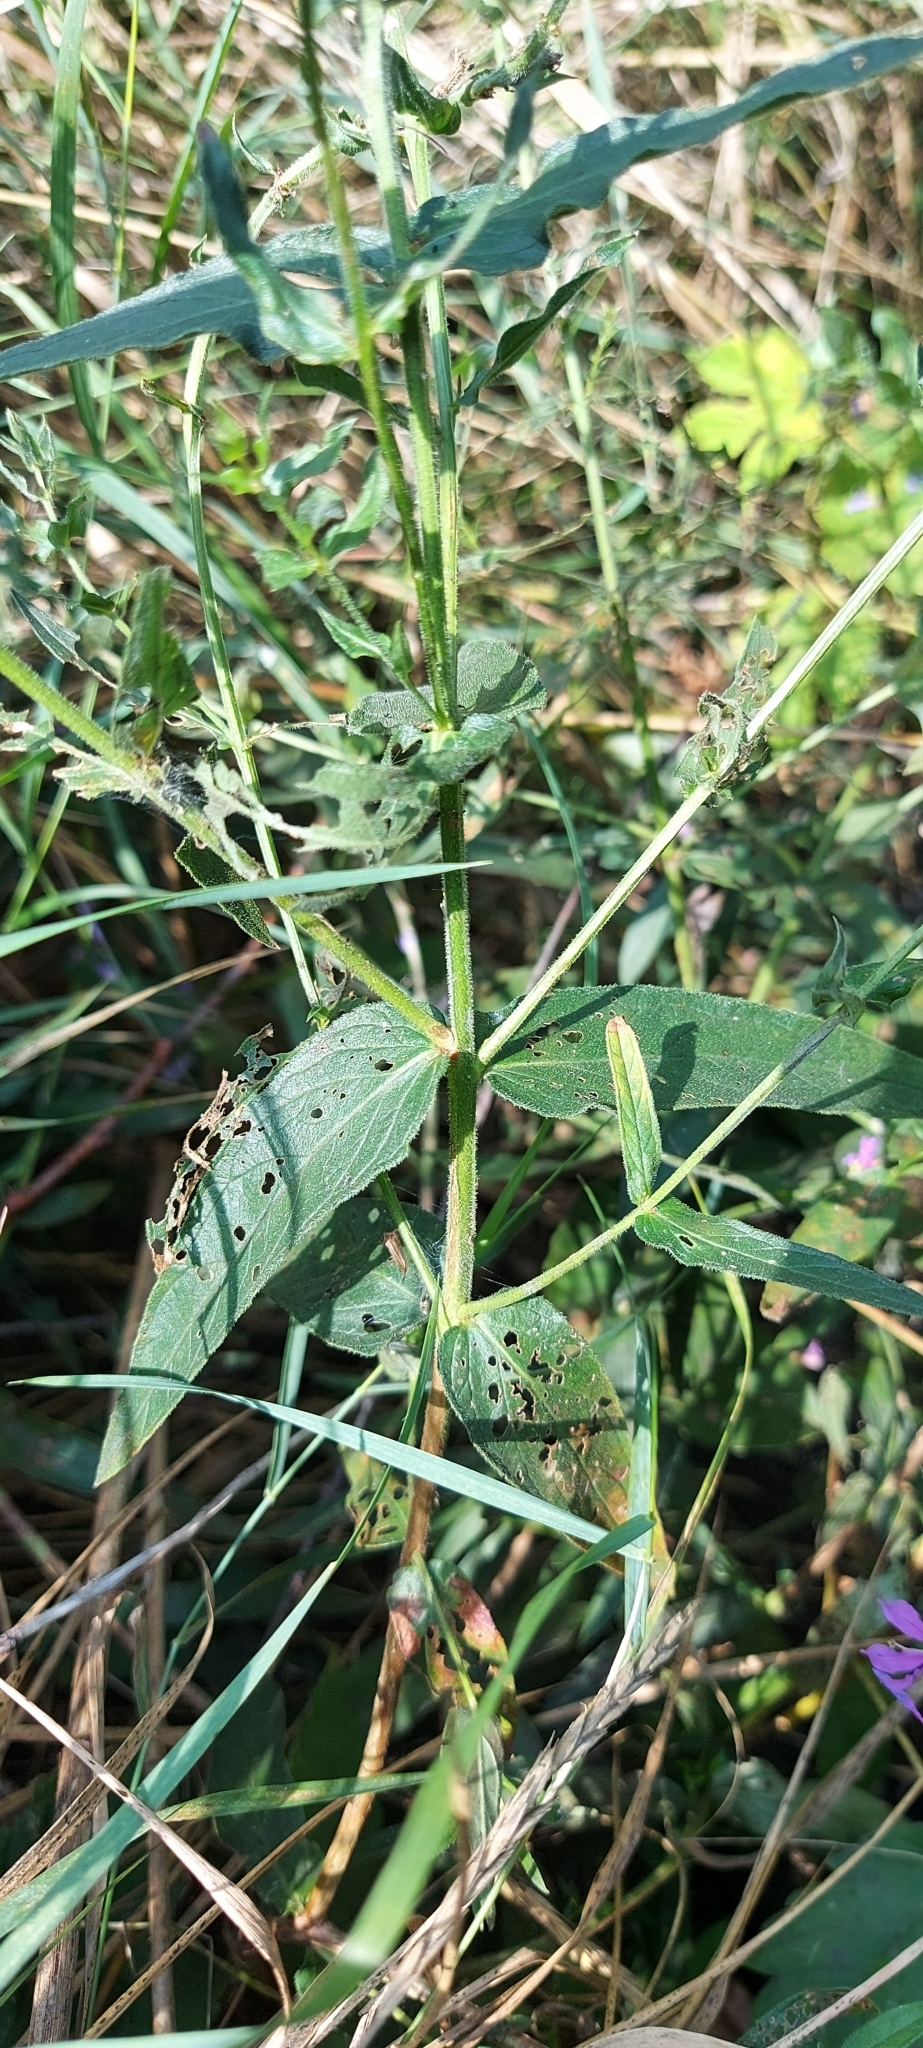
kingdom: Plantae
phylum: Tracheophyta
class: Magnoliopsida
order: Myrtales
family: Lythraceae
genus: Lythrum
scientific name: Lythrum salicaria
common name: Purple loosestrife
